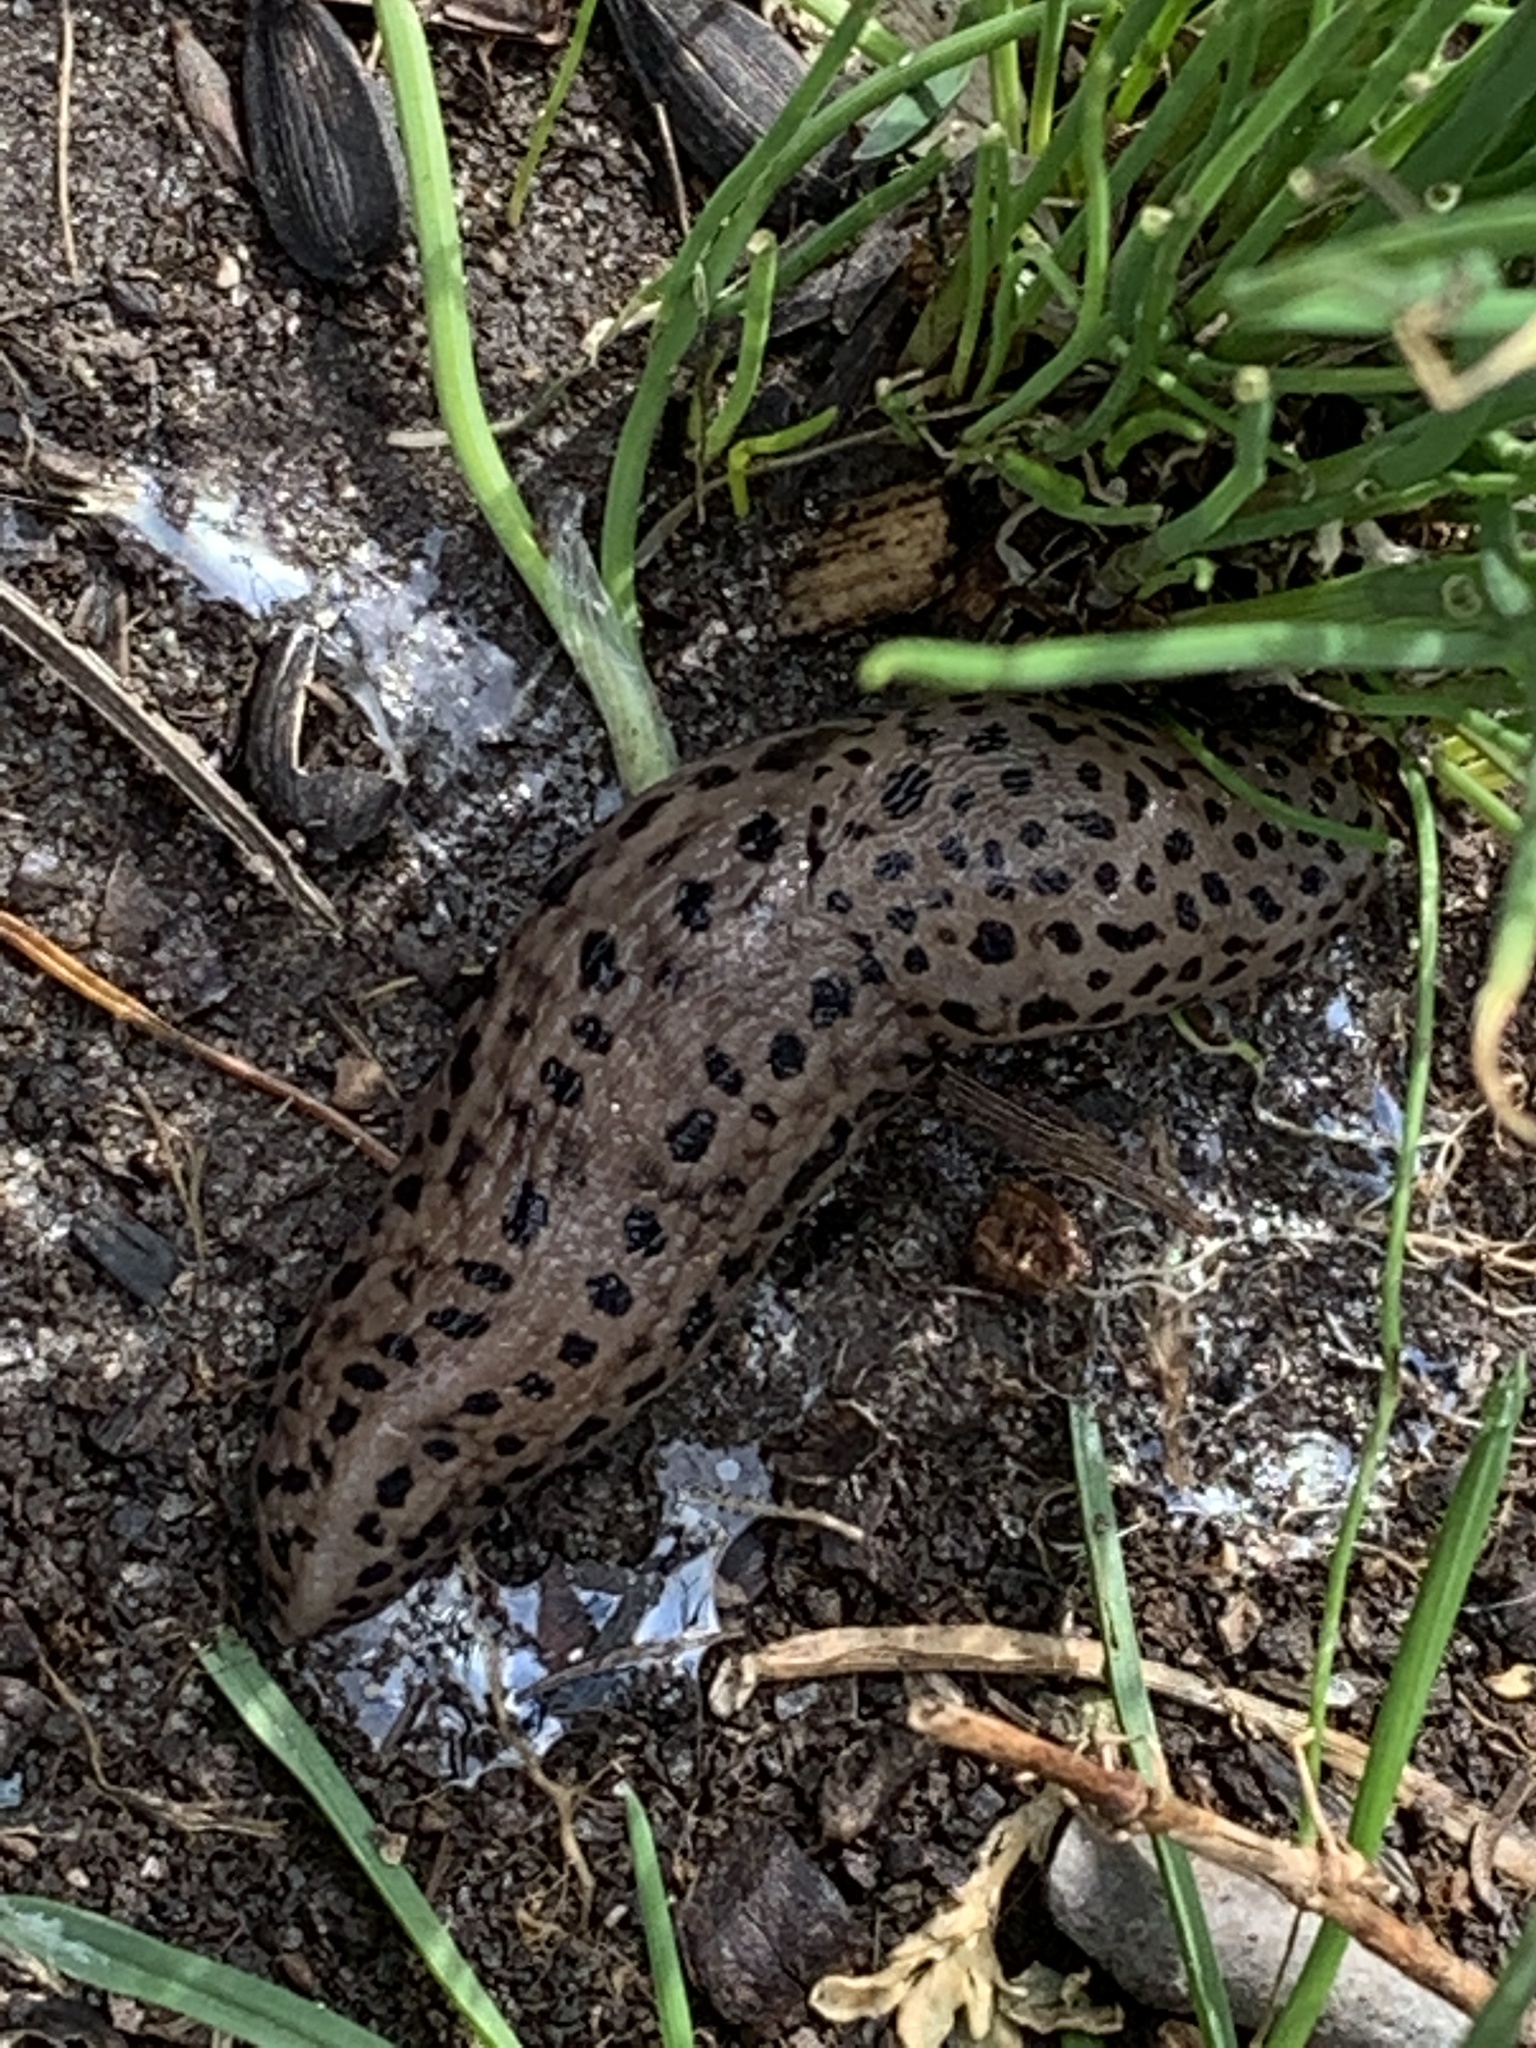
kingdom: Animalia
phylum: Mollusca
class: Gastropoda
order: Stylommatophora
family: Limacidae
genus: Limax
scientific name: Limax maximus
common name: Great grey slug
